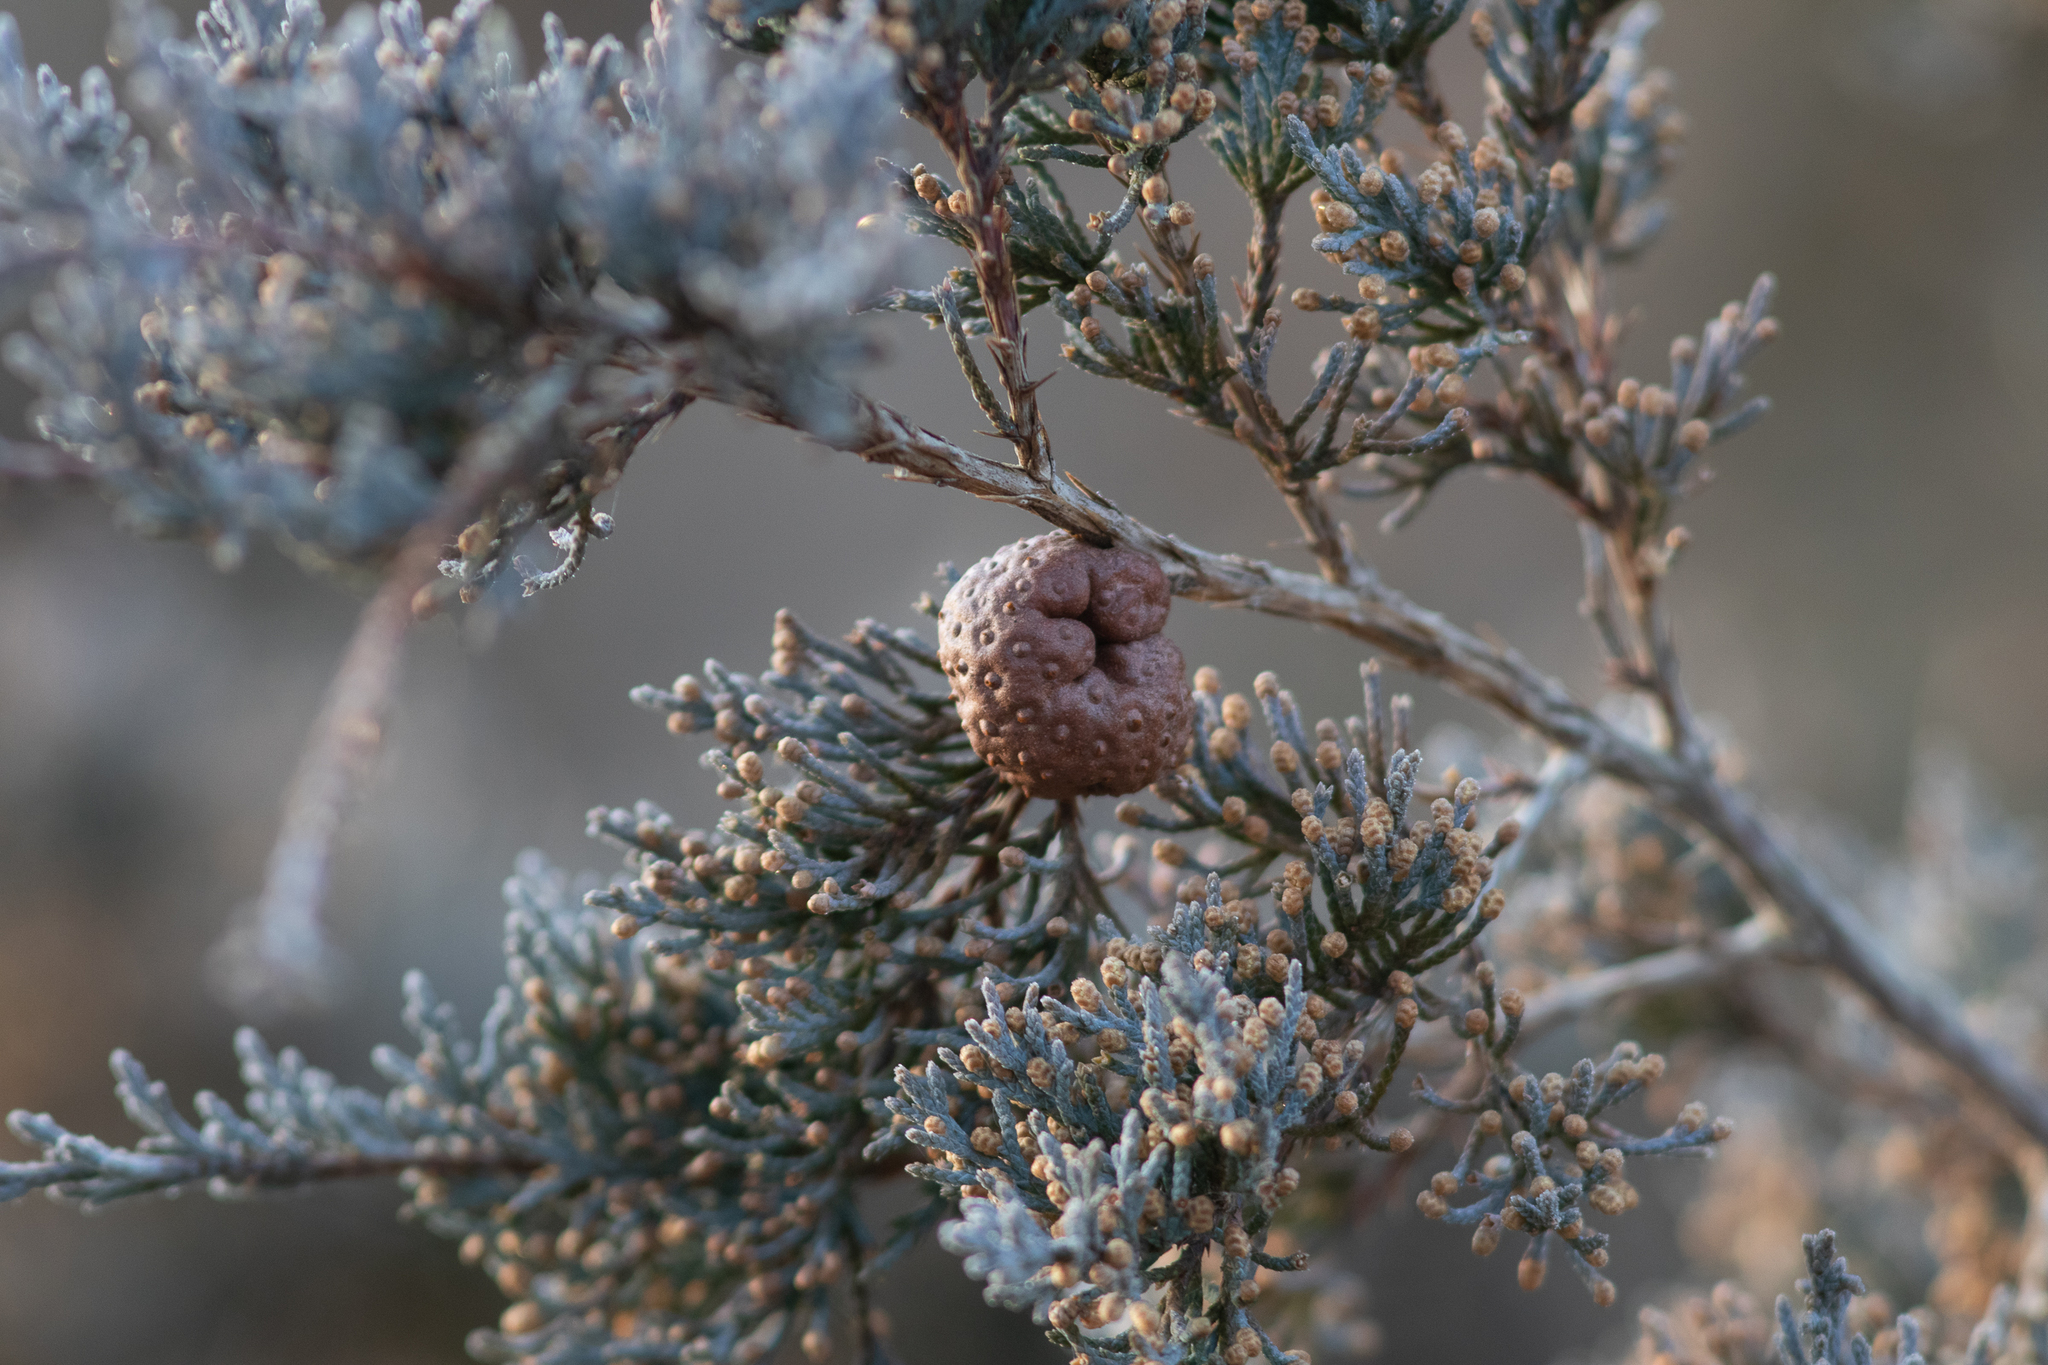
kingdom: Fungi
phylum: Basidiomycota
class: Pucciniomycetes
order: Pucciniales
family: Gymnosporangiaceae
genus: Gymnosporangium
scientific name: Gymnosporangium juniperi-virginianae
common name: Juniper-apple rust
